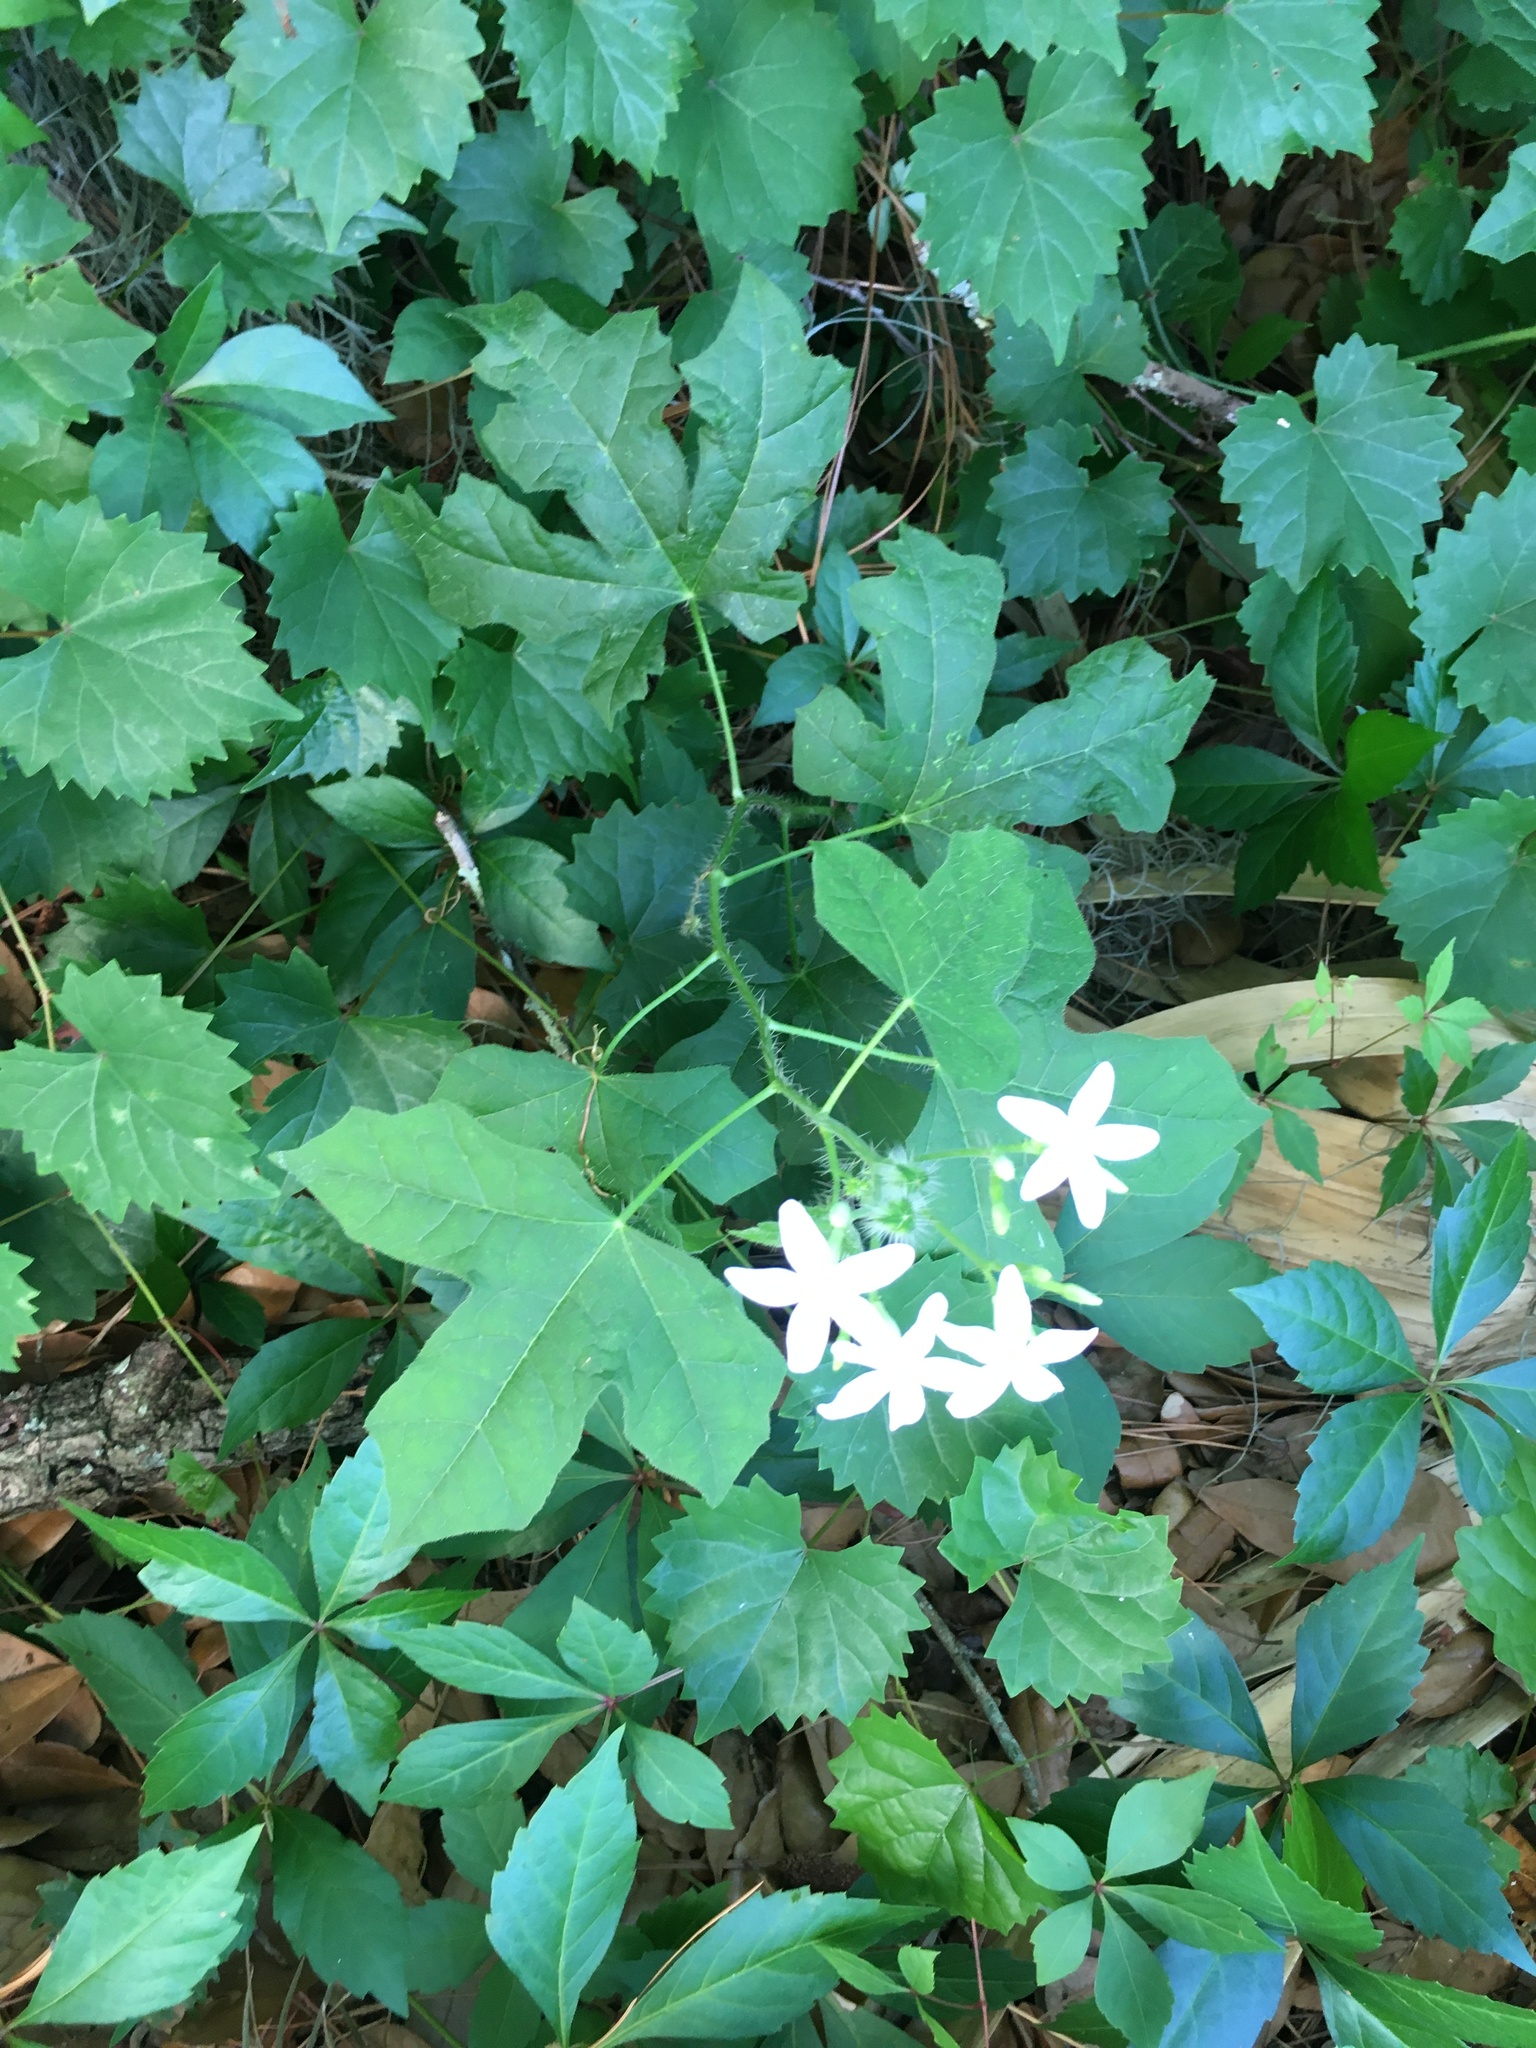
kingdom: Plantae
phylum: Tracheophyta
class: Magnoliopsida
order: Malpighiales
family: Euphorbiaceae
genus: Cnidoscolus
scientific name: Cnidoscolus stimulosus
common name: Bull-nettle
